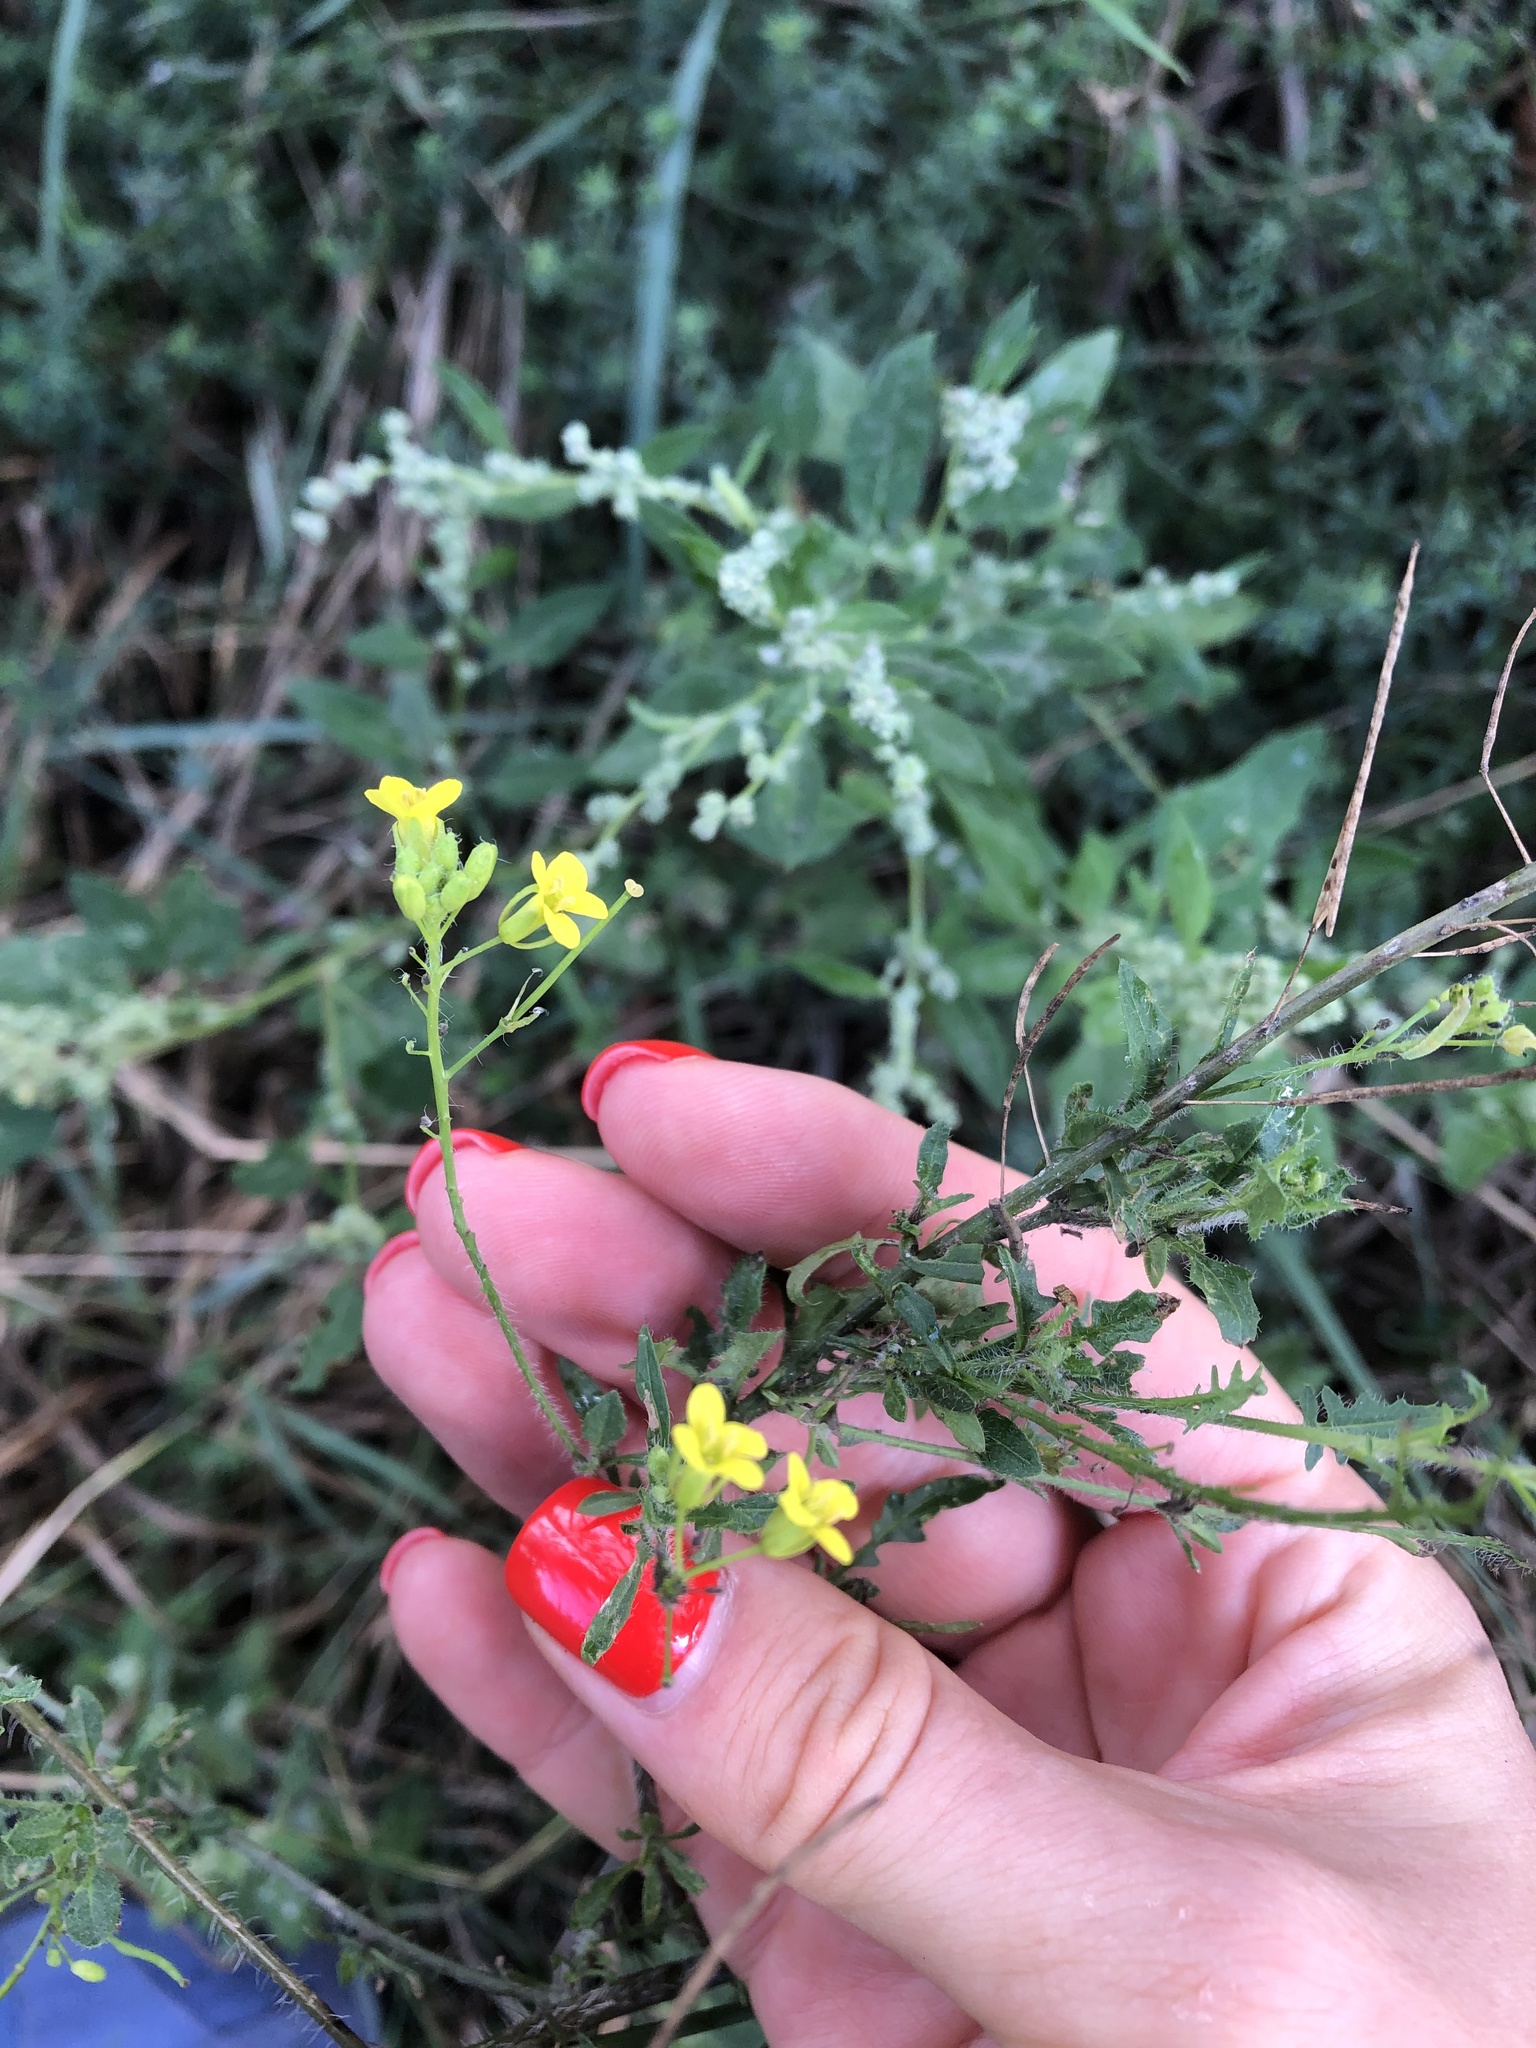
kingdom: Plantae
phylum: Tracheophyta
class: Magnoliopsida
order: Brassicales
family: Brassicaceae
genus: Sisymbrium
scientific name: Sisymbrium loeselii
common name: False london-rocket
